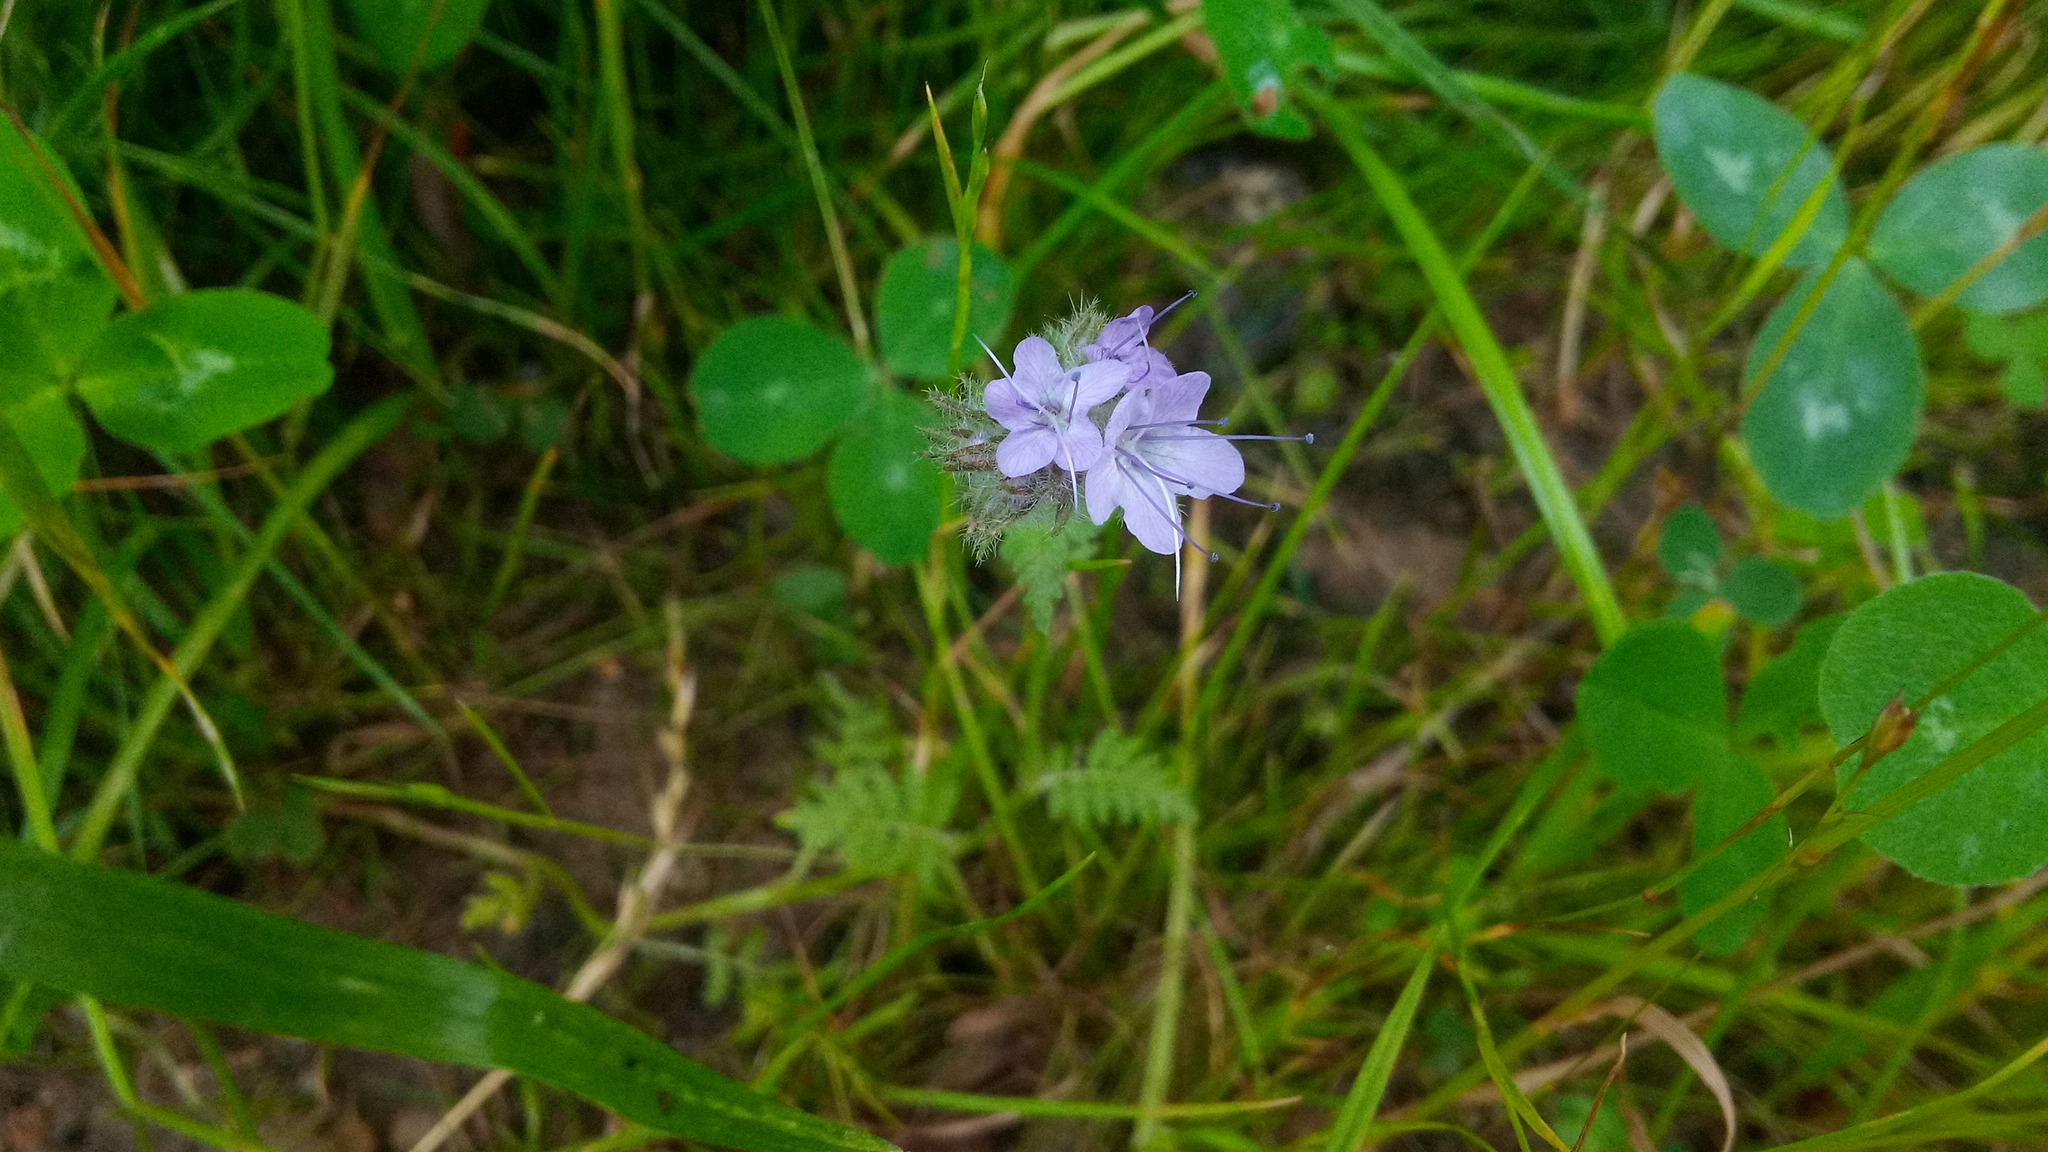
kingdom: Plantae
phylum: Tracheophyta
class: Magnoliopsida
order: Boraginales
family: Hydrophyllaceae
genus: Phacelia
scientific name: Phacelia tanacetifolia
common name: Phacelia
